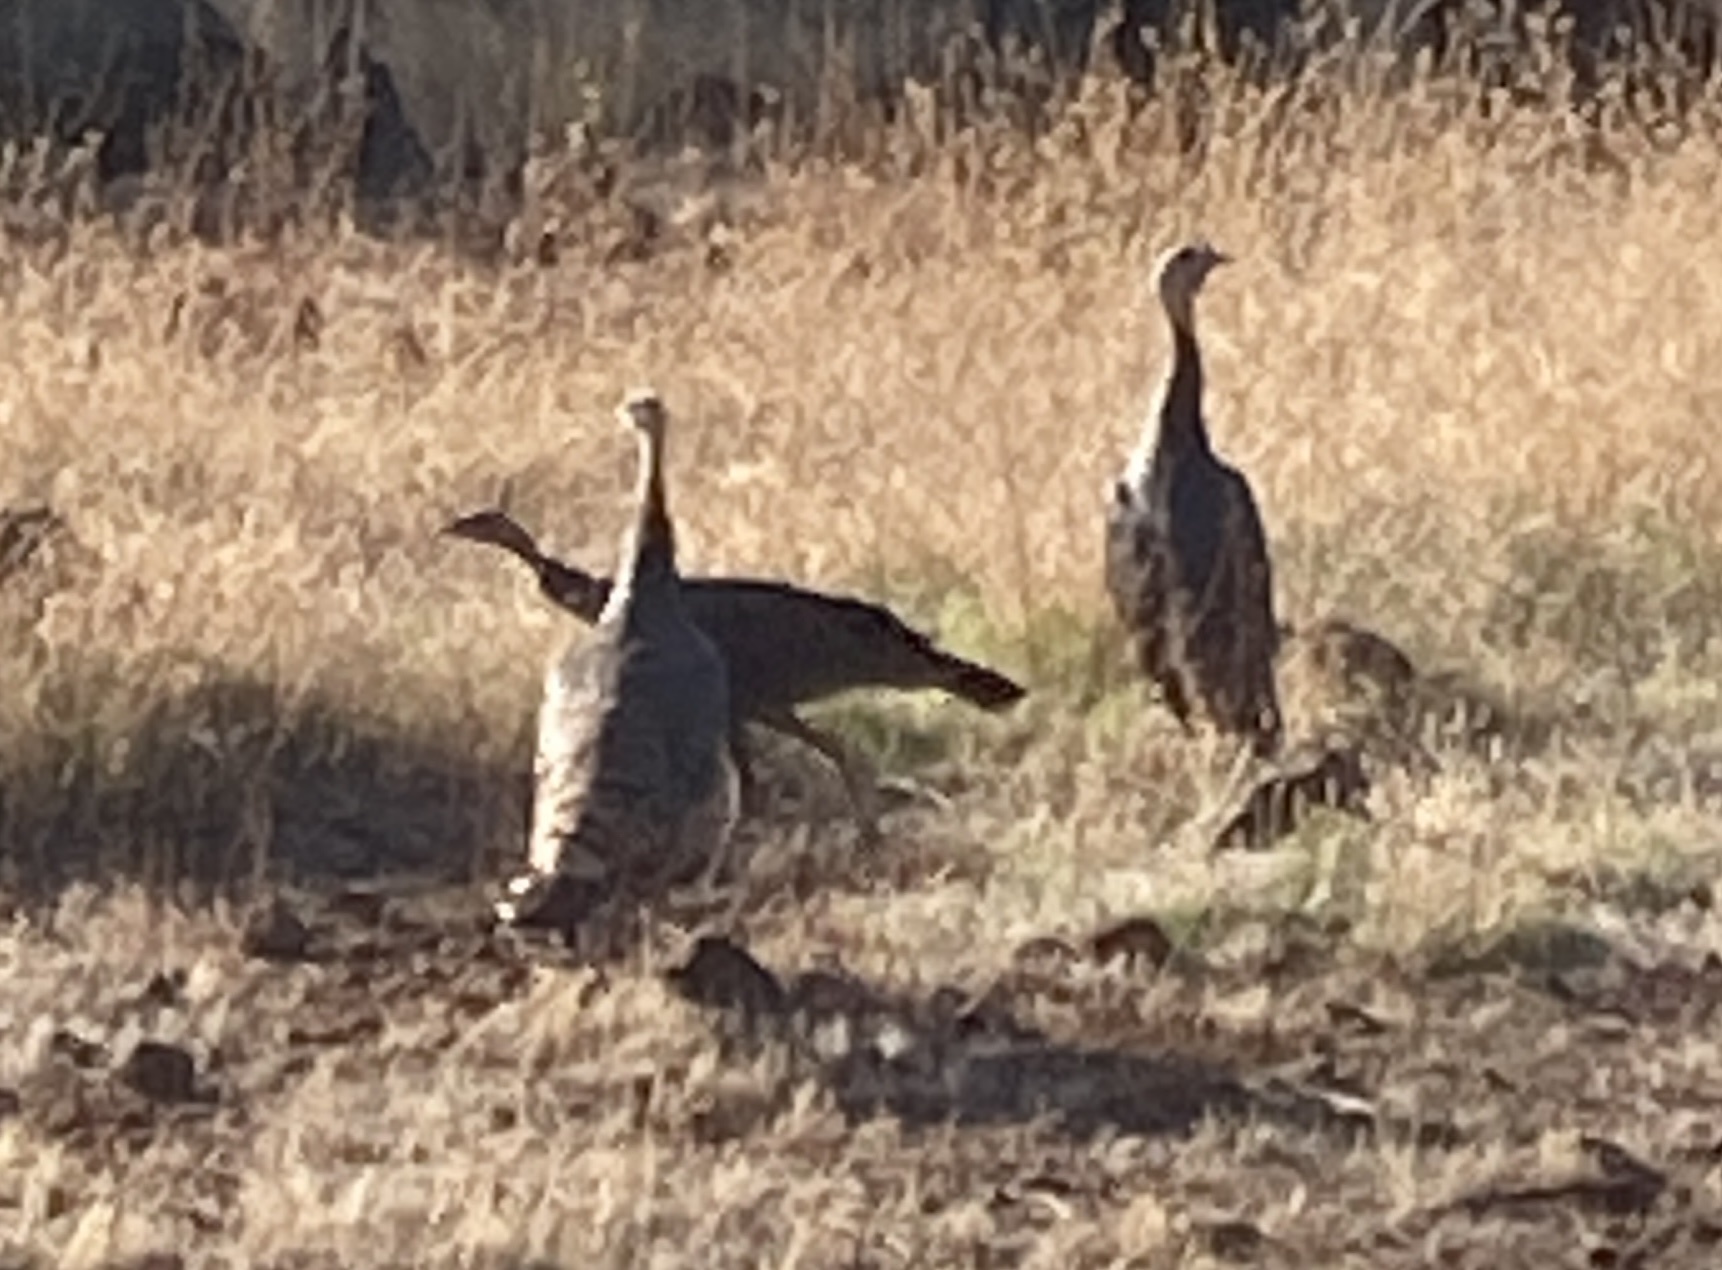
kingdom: Animalia
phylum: Chordata
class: Aves
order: Galliformes
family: Phasianidae
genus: Meleagris
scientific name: Meleagris gallopavo
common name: Wild turkey
